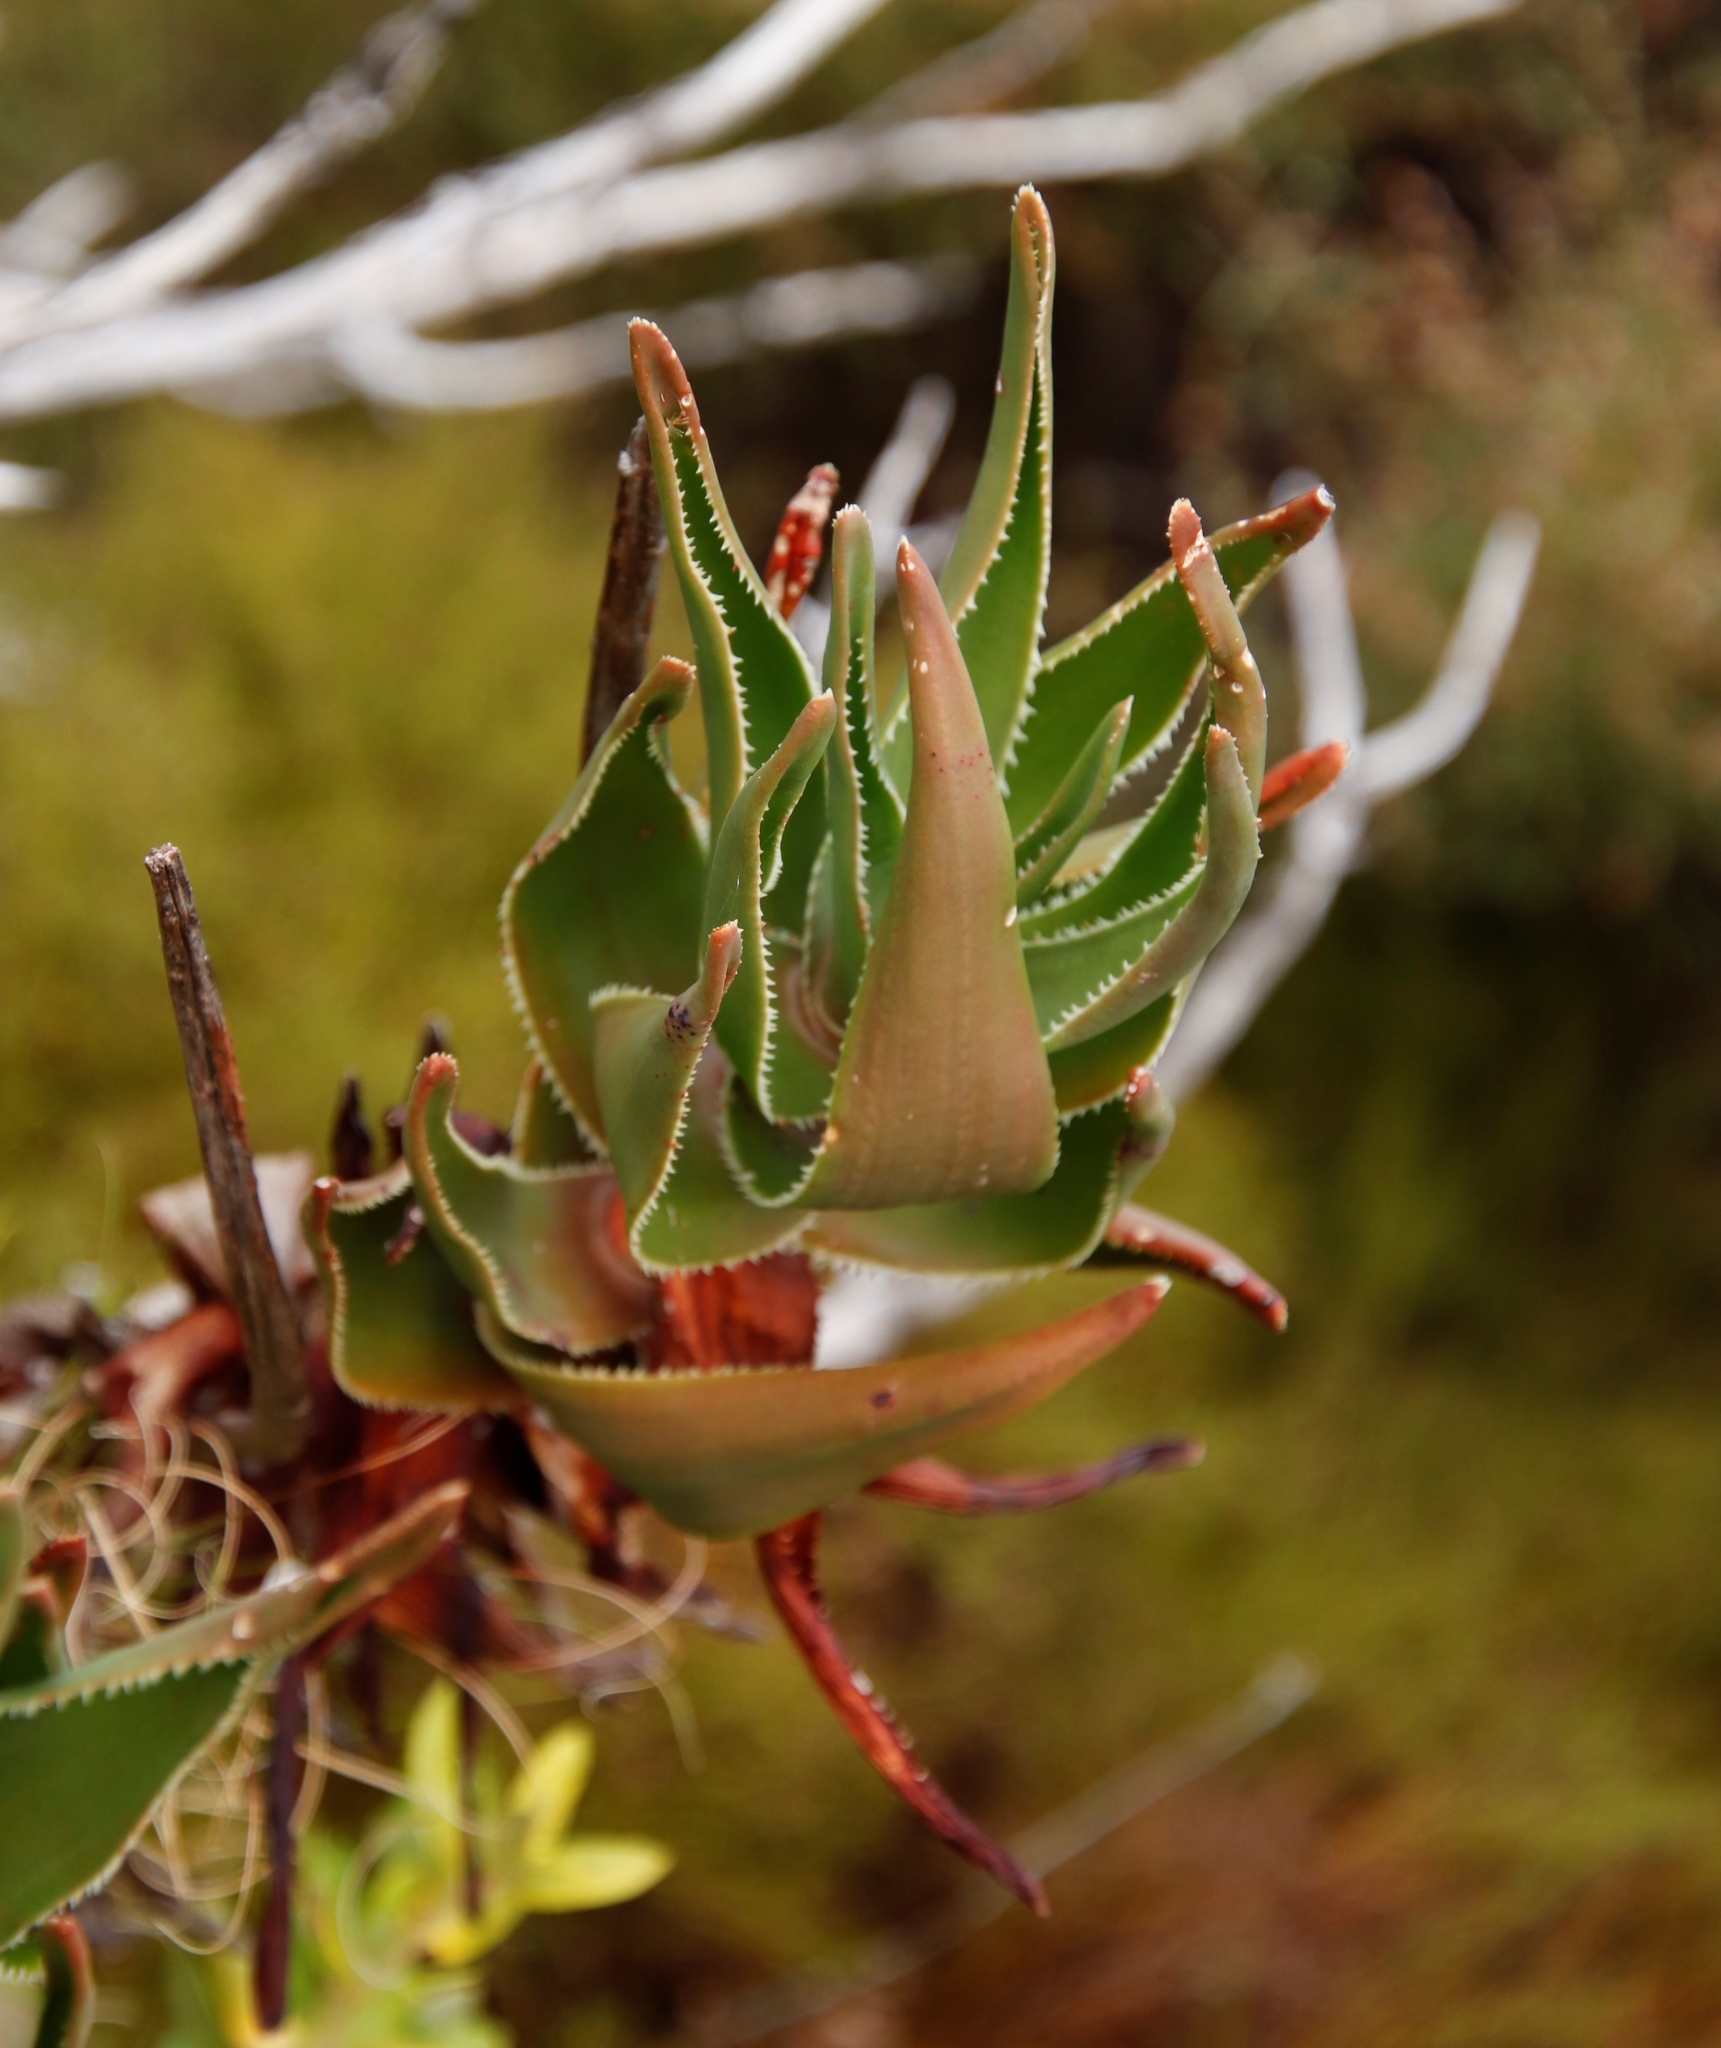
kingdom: Plantae
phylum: Tracheophyta
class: Liliopsida
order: Asparagales
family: Asphodelaceae
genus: Aloiampelos
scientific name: Aloiampelos commixta
